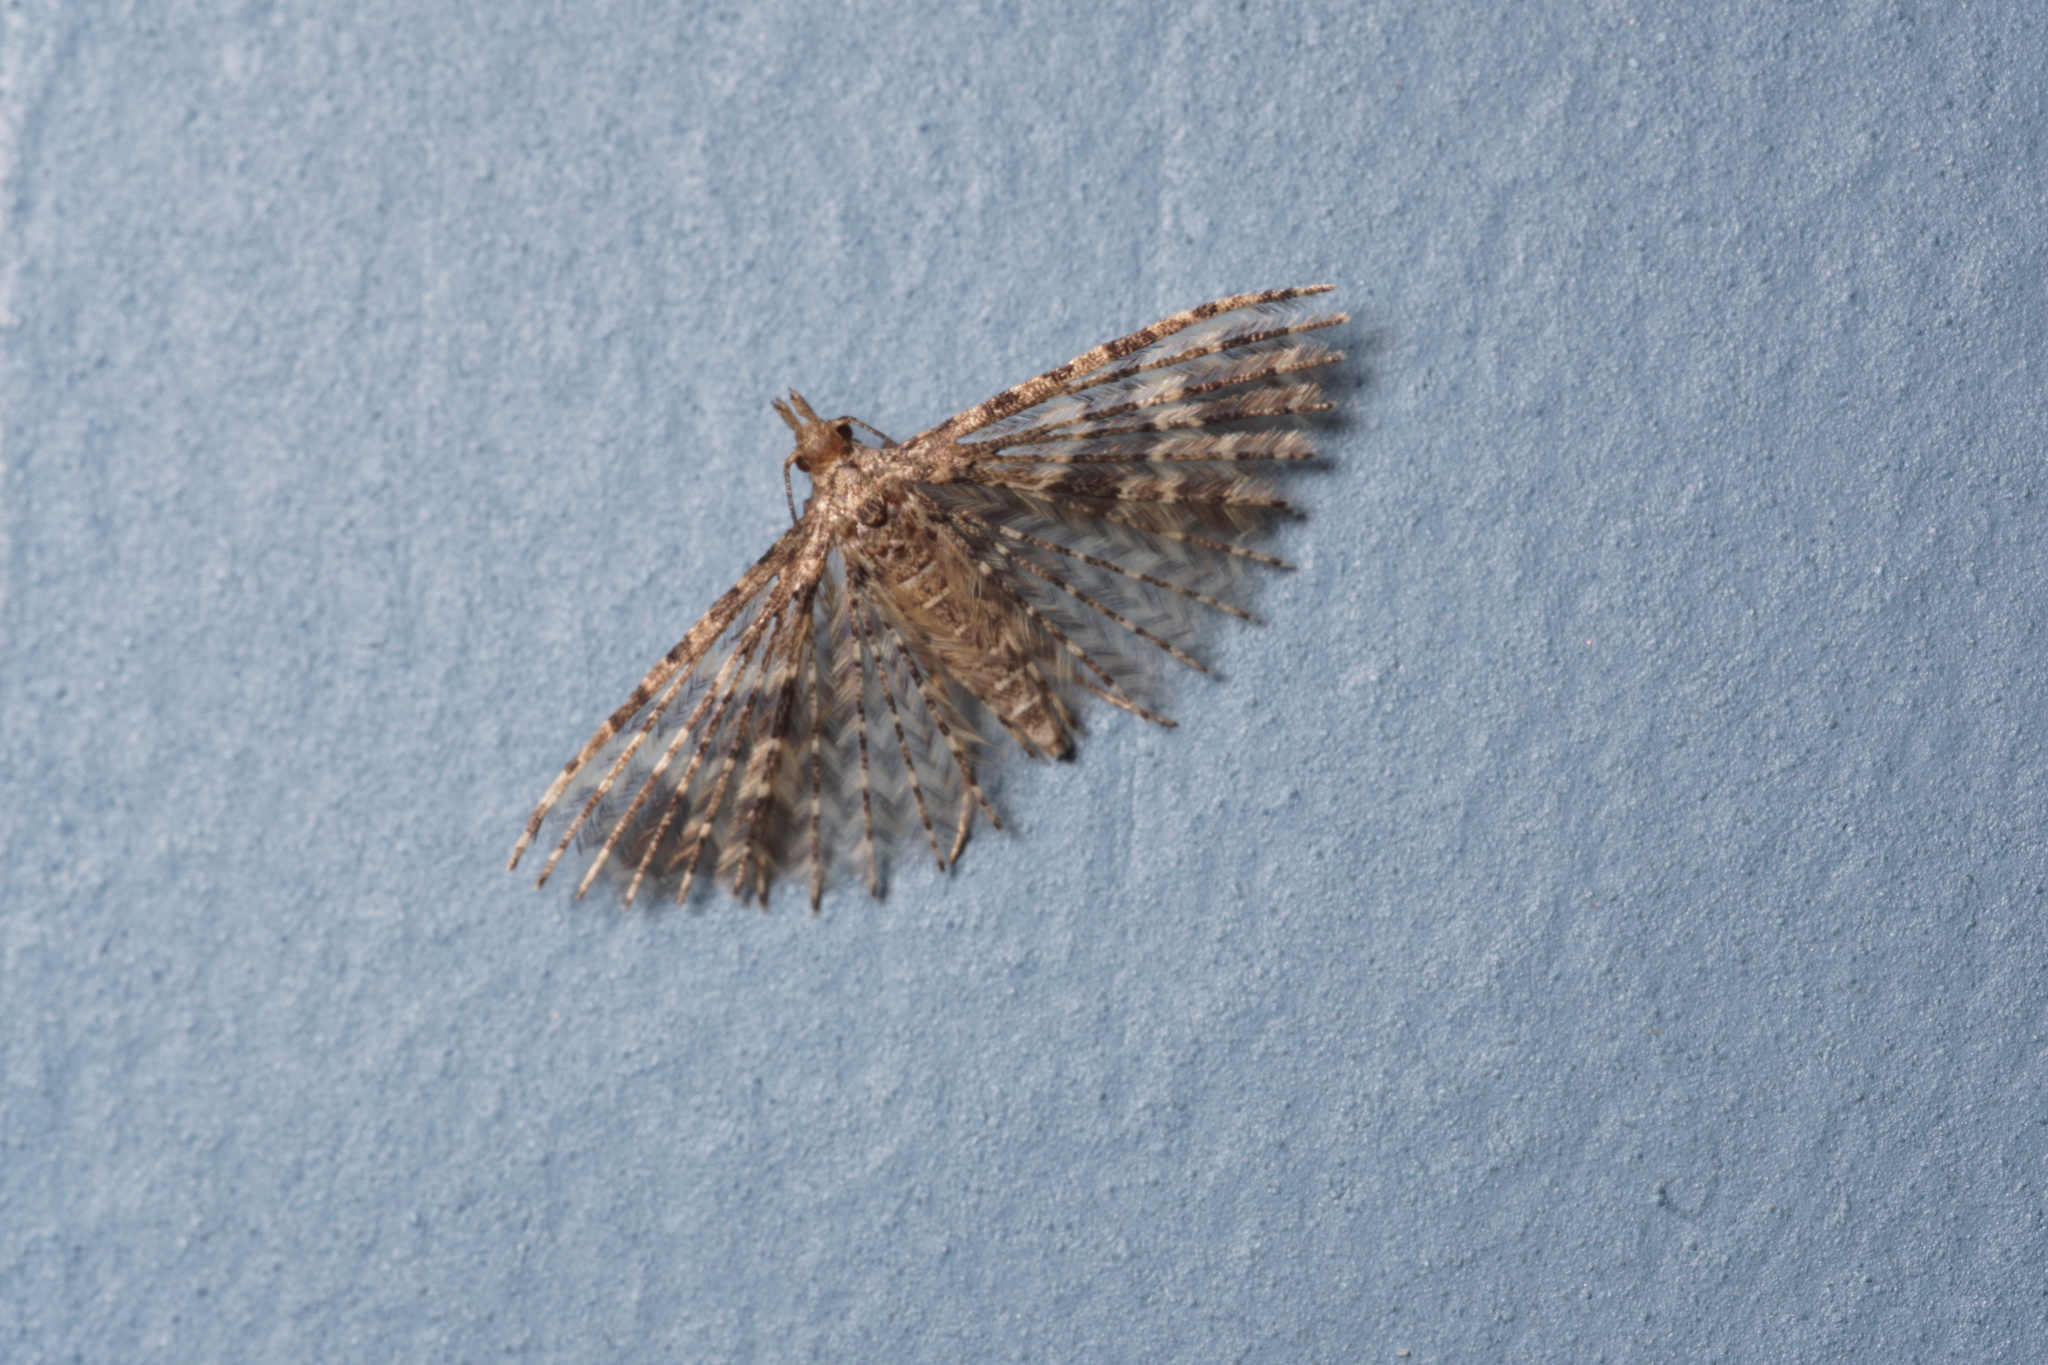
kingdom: Animalia
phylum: Arthropoda
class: Insecta
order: Lepidoptera
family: Alucitidae
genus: Alucita
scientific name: Alucita hexadactyla
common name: Twenty-plume moth
